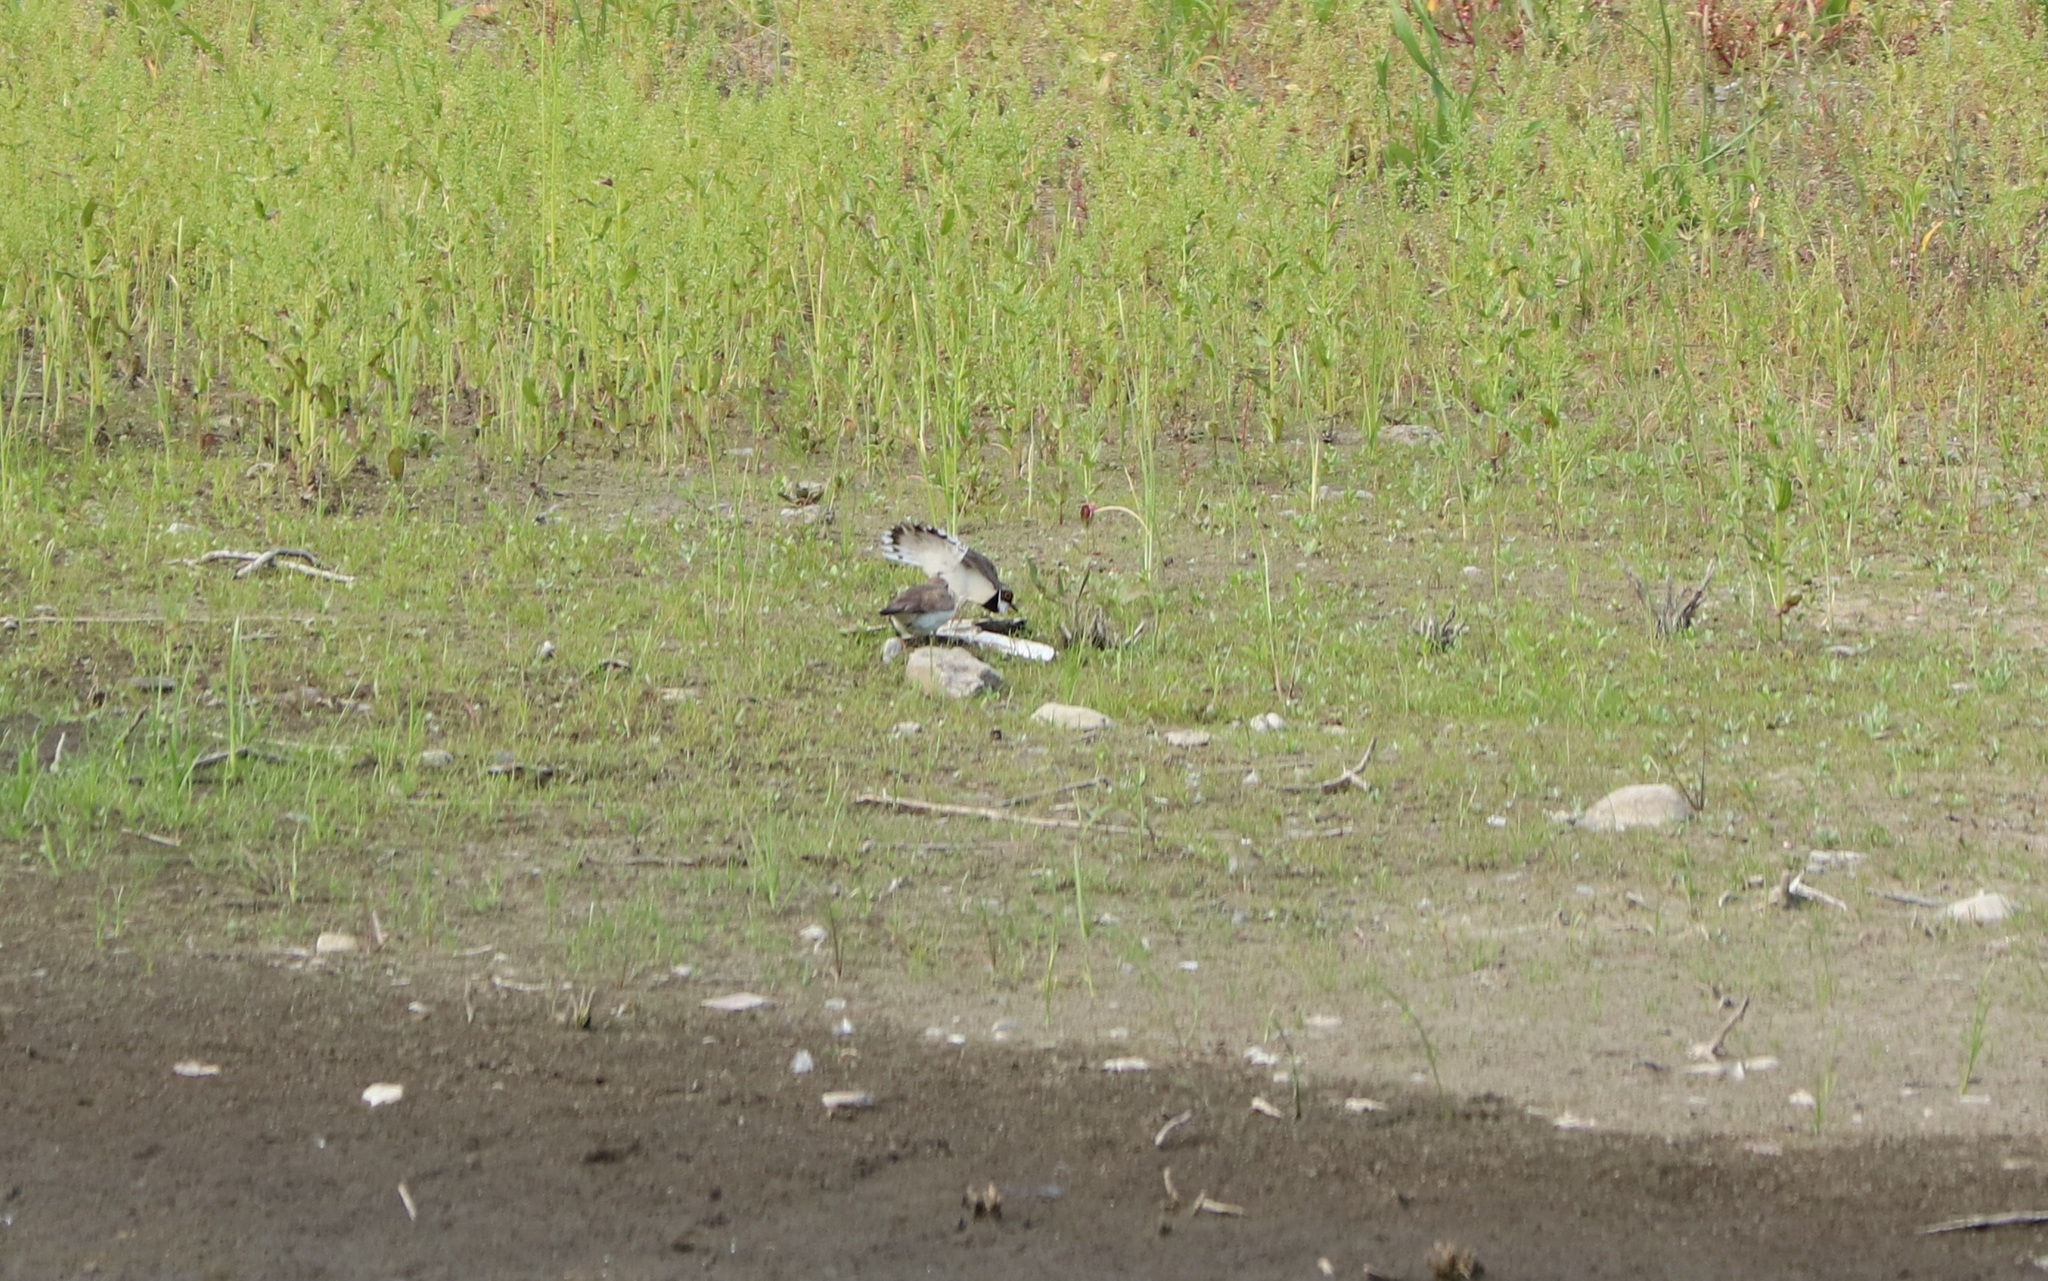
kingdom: Animalia
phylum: Chordata
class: Aves
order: Charadriiformes
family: Charadriidae
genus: Charadrius
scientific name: Charadrius dubius
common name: Little ringed plover
